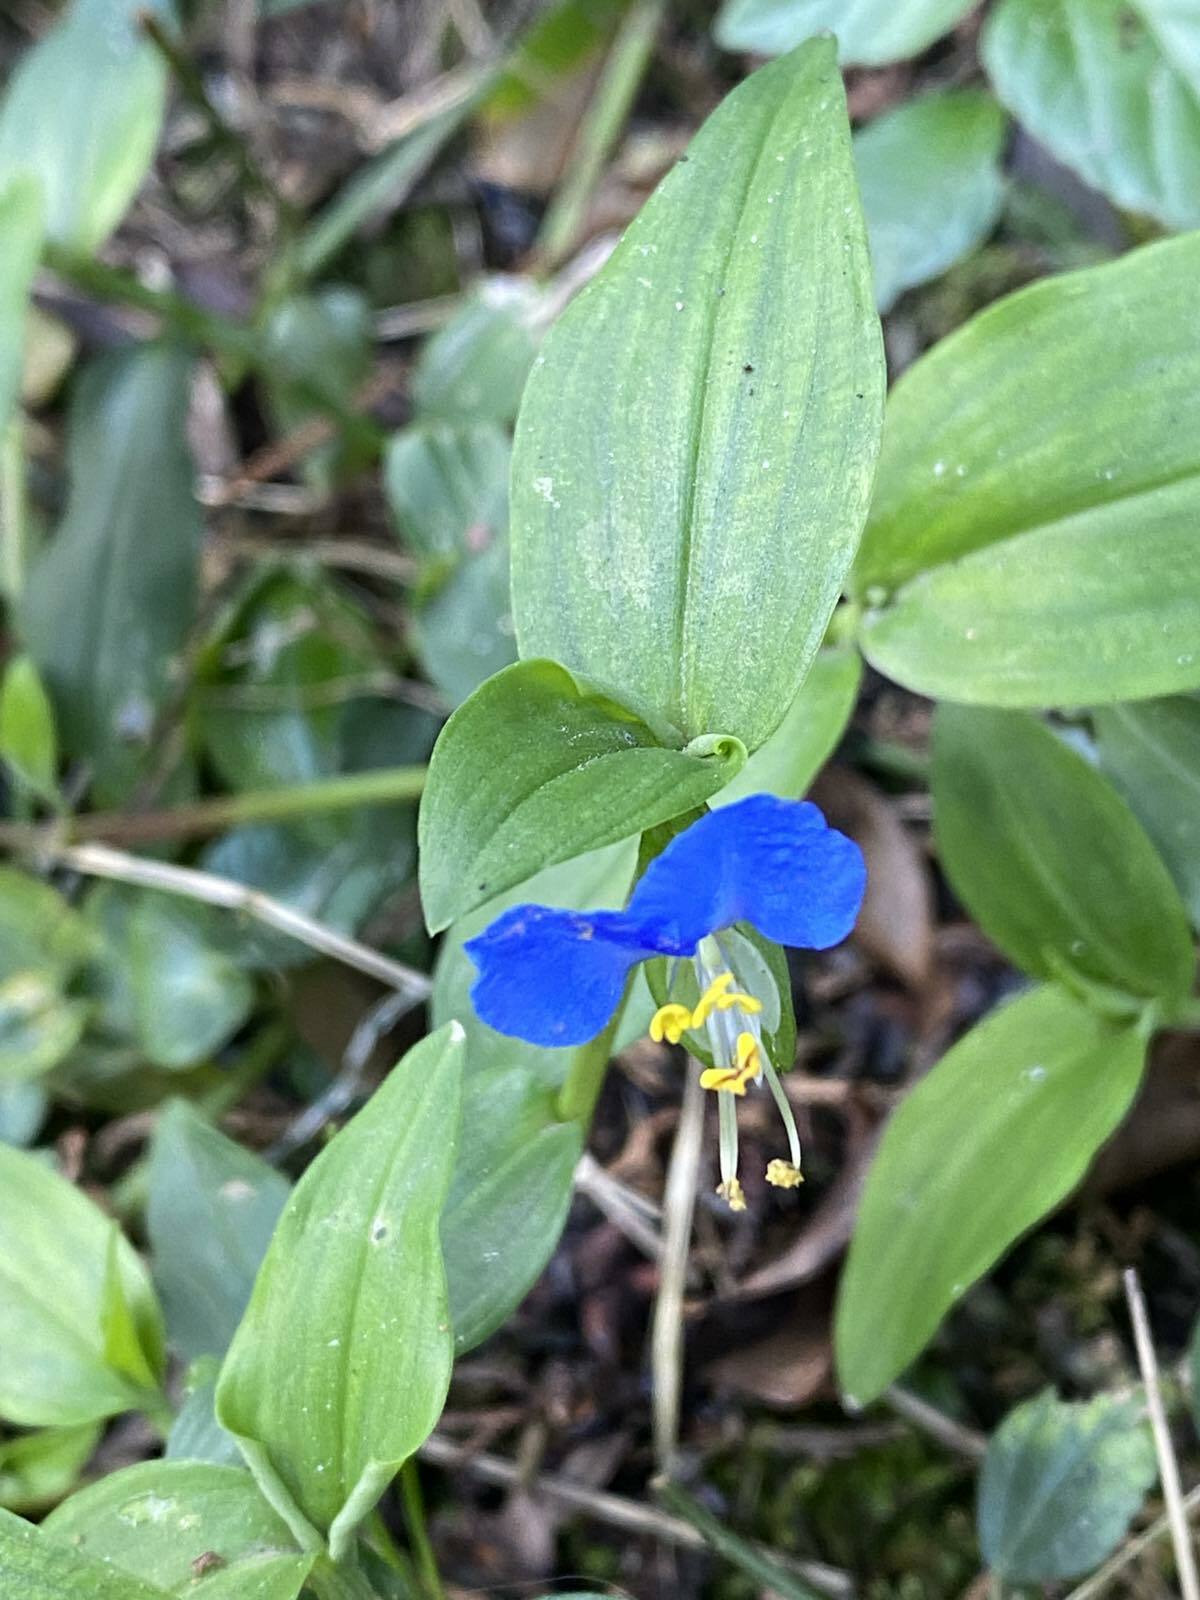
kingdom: Plantae
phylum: Tracheophyta
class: Liliopsida
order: Commelinales
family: Commelinaceae
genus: Commelina
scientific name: Commelina communis
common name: Asiatic dayflower
